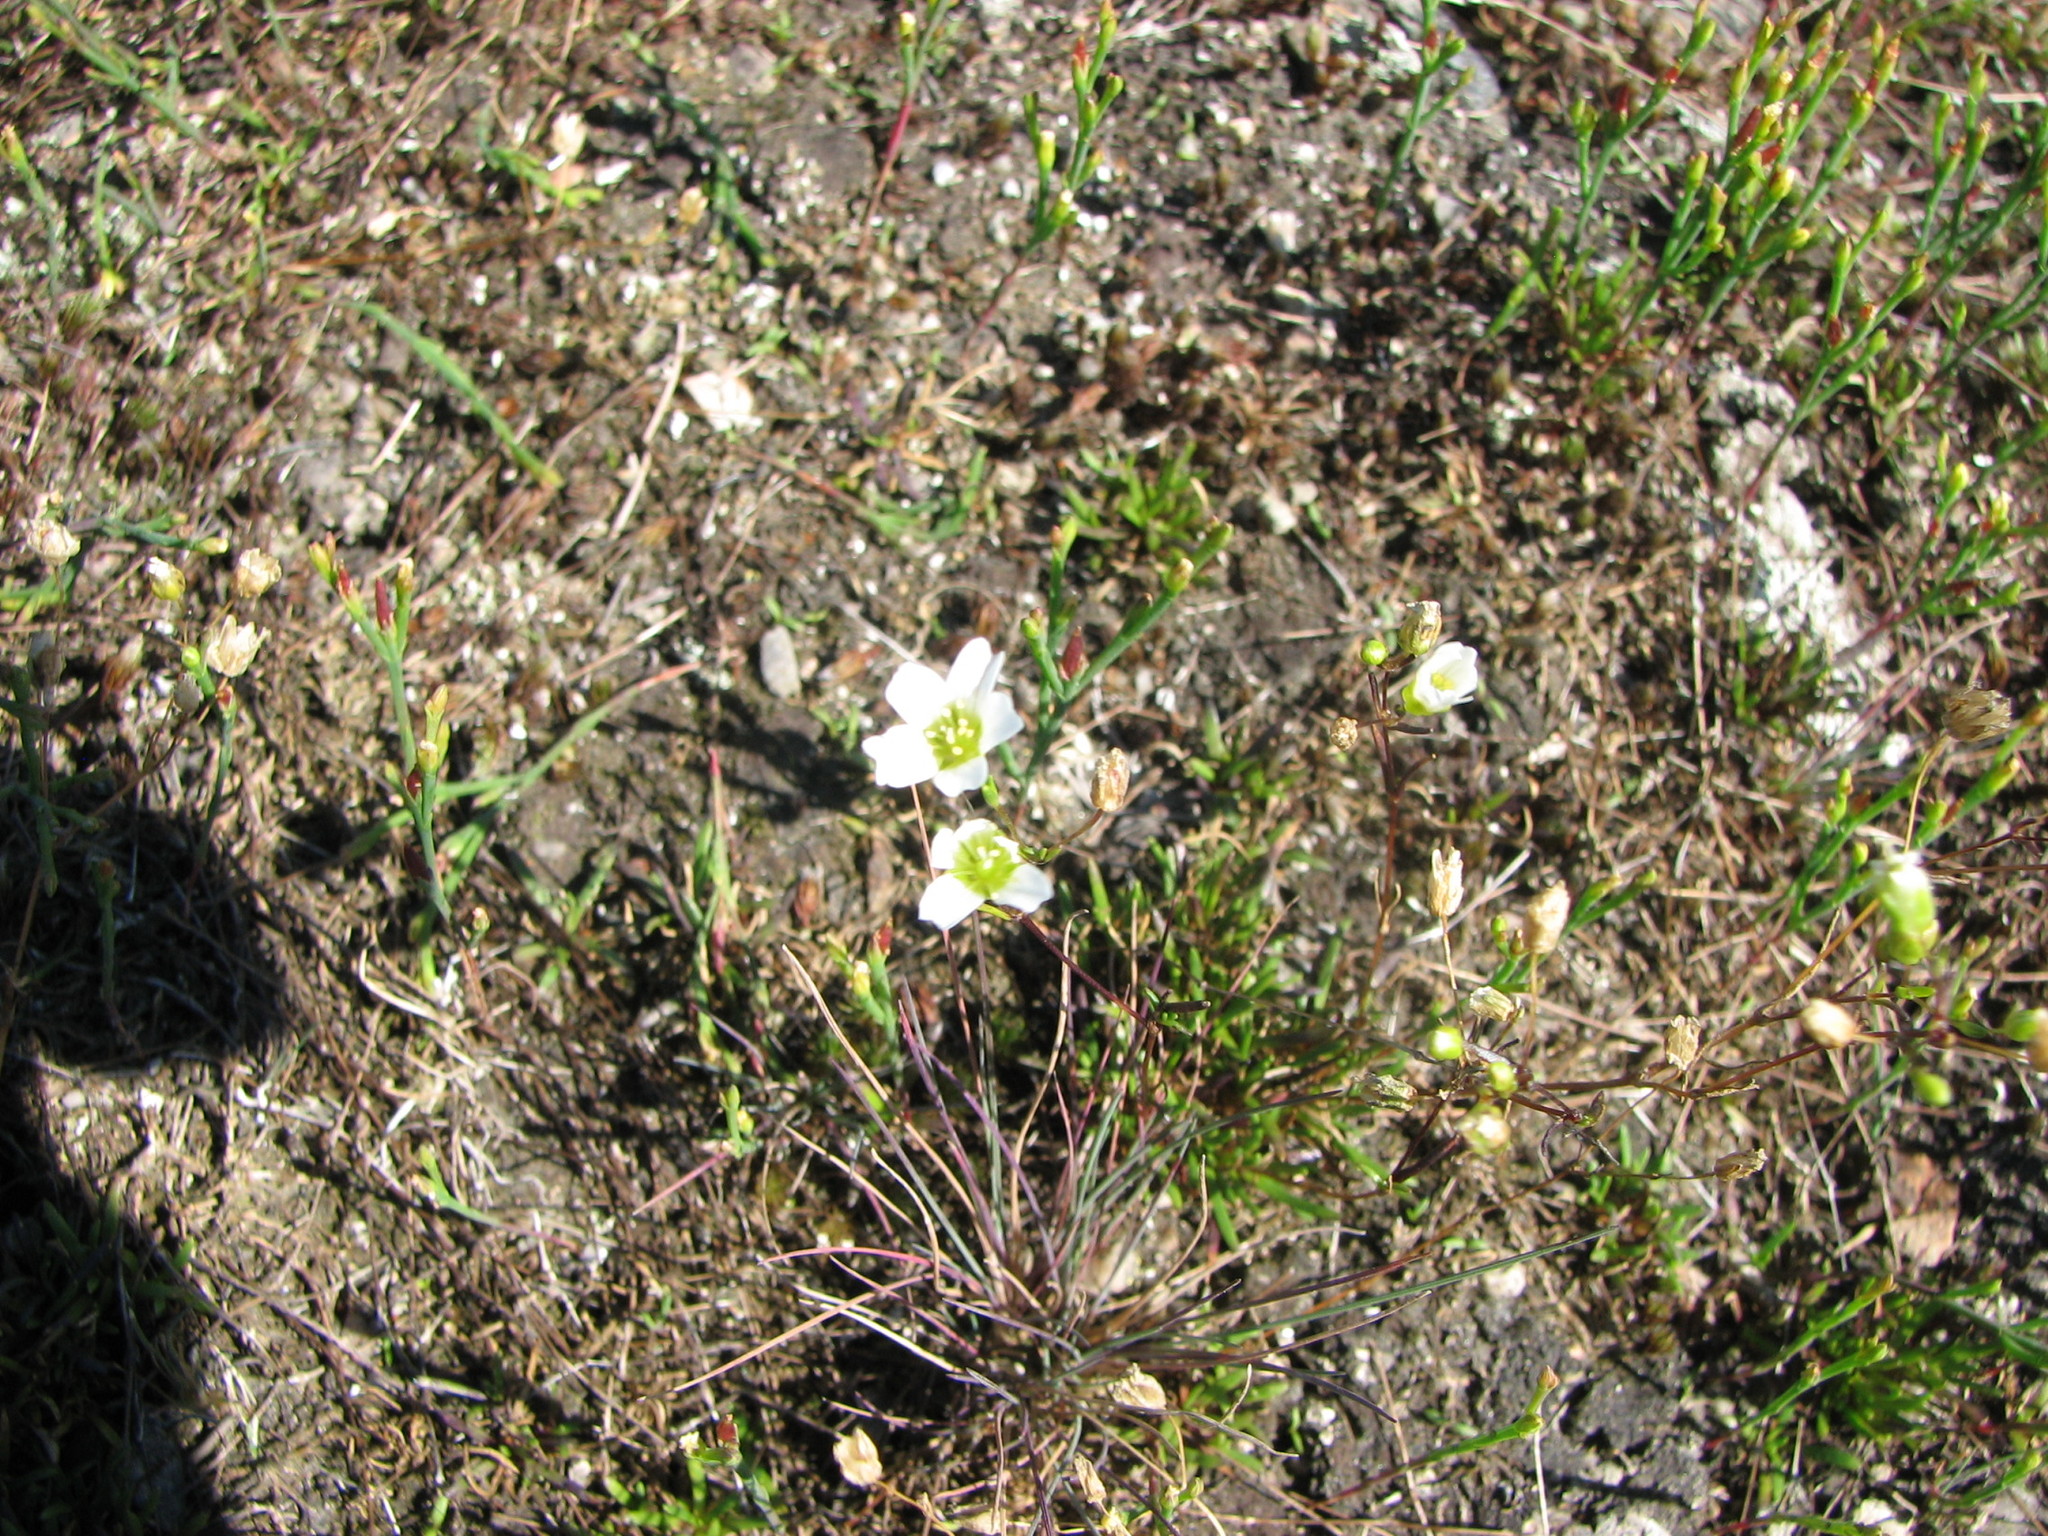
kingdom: Plantae
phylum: Tracheophyta
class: Magnoliopsida
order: Caryophyllales
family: Caryophyllaceae
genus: Geocarpon
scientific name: Geocarpon groenlandicum
